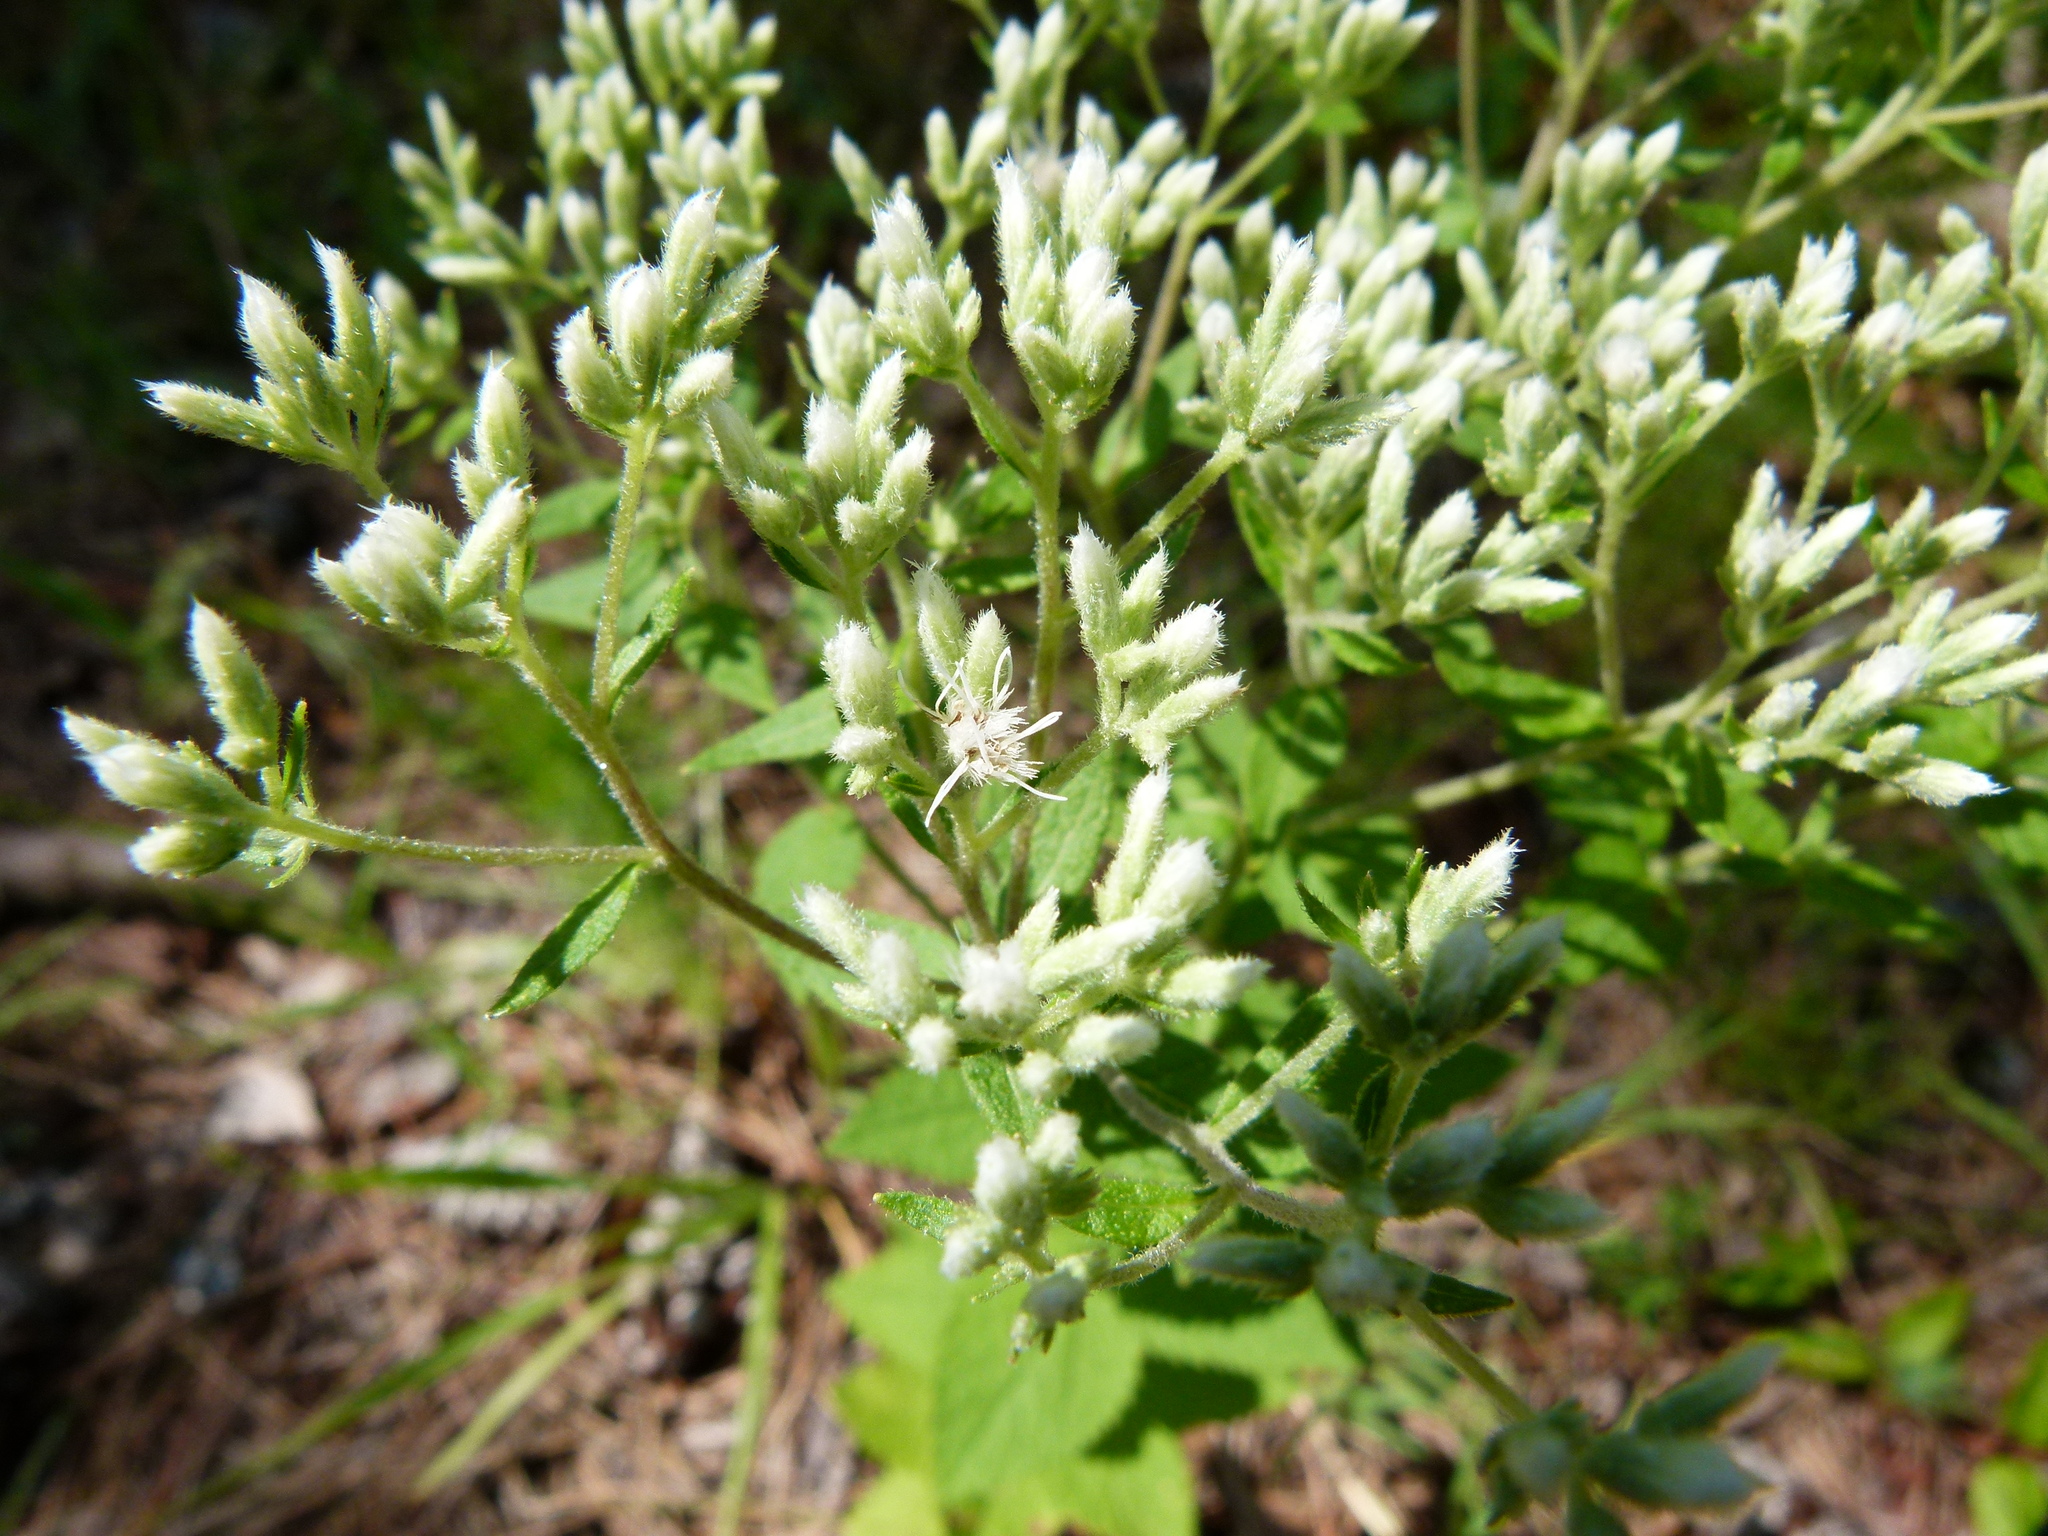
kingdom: Plantae
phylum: Tracheophyta
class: Magnoliopsida
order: Asterales
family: Asteraceae
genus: Eupatorium
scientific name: Eupatorium rotundifolium
